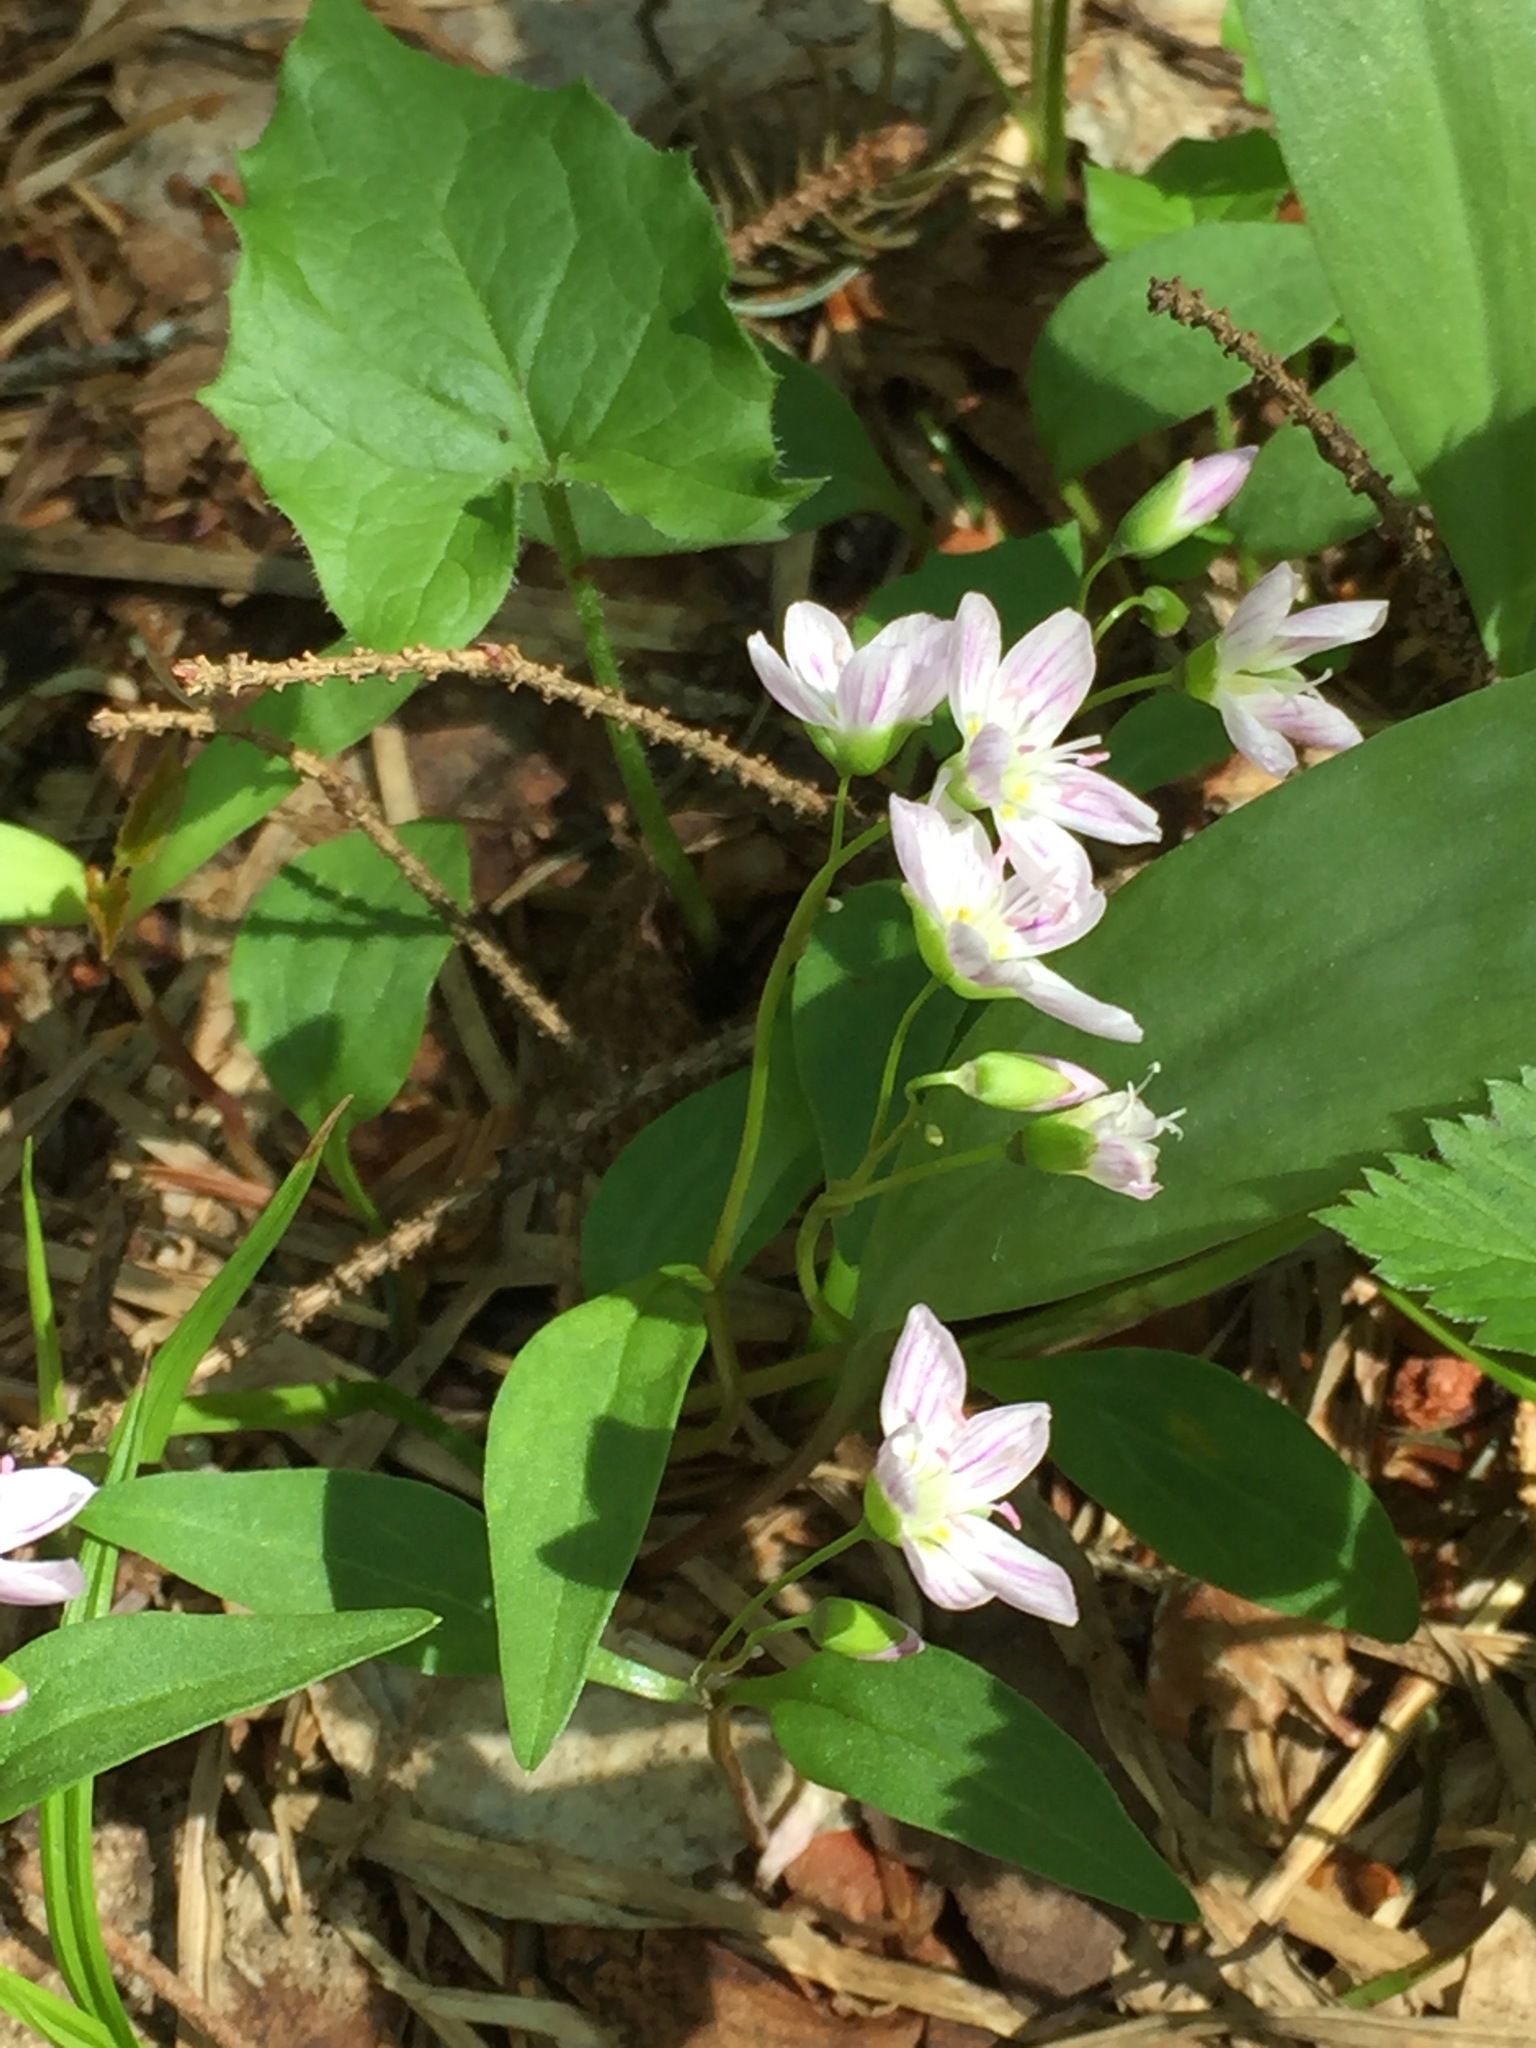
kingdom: Plantae
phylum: Tracheophyta
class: Magnoliopsida
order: Caryophyllales
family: Montiaceae
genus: Claytonia
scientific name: Claytonia caroliniana
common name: Carolina spring beauty
